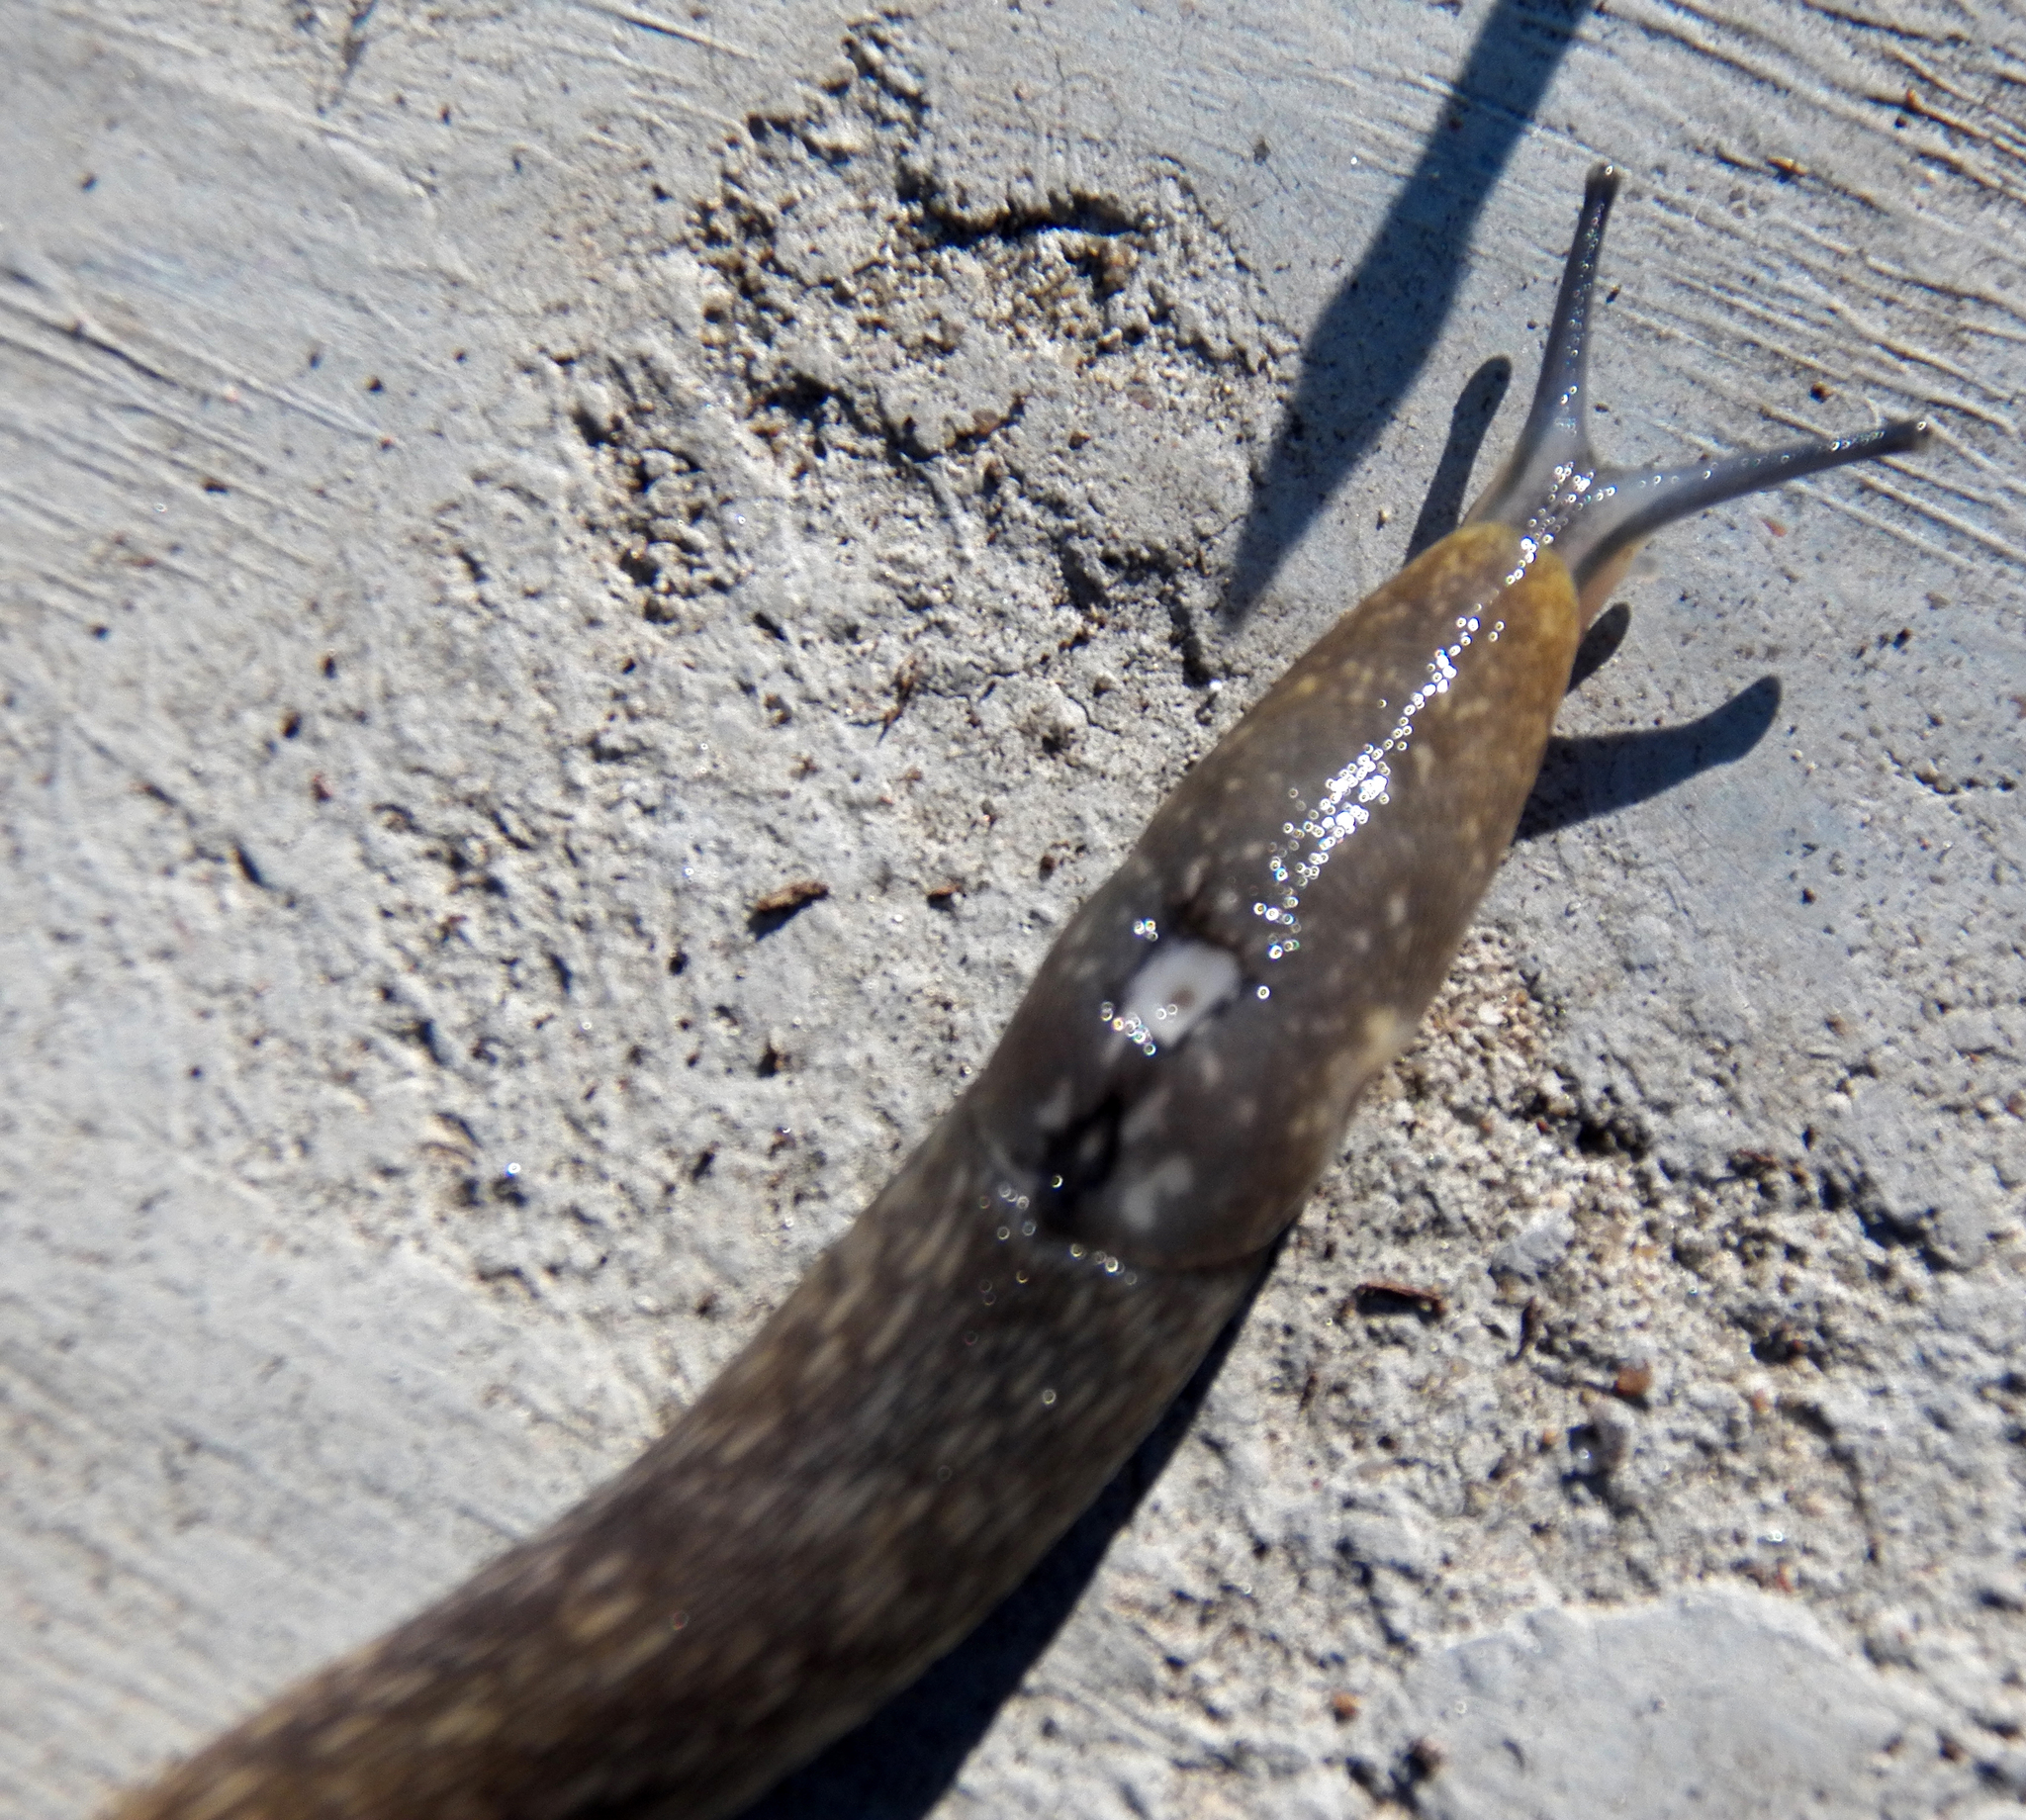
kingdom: Animalia
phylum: Mollusca
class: Gastropoda
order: Stylommatophora
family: Limacidae
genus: Limacus
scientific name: Limacus flavus
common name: Yellow gardenslug
